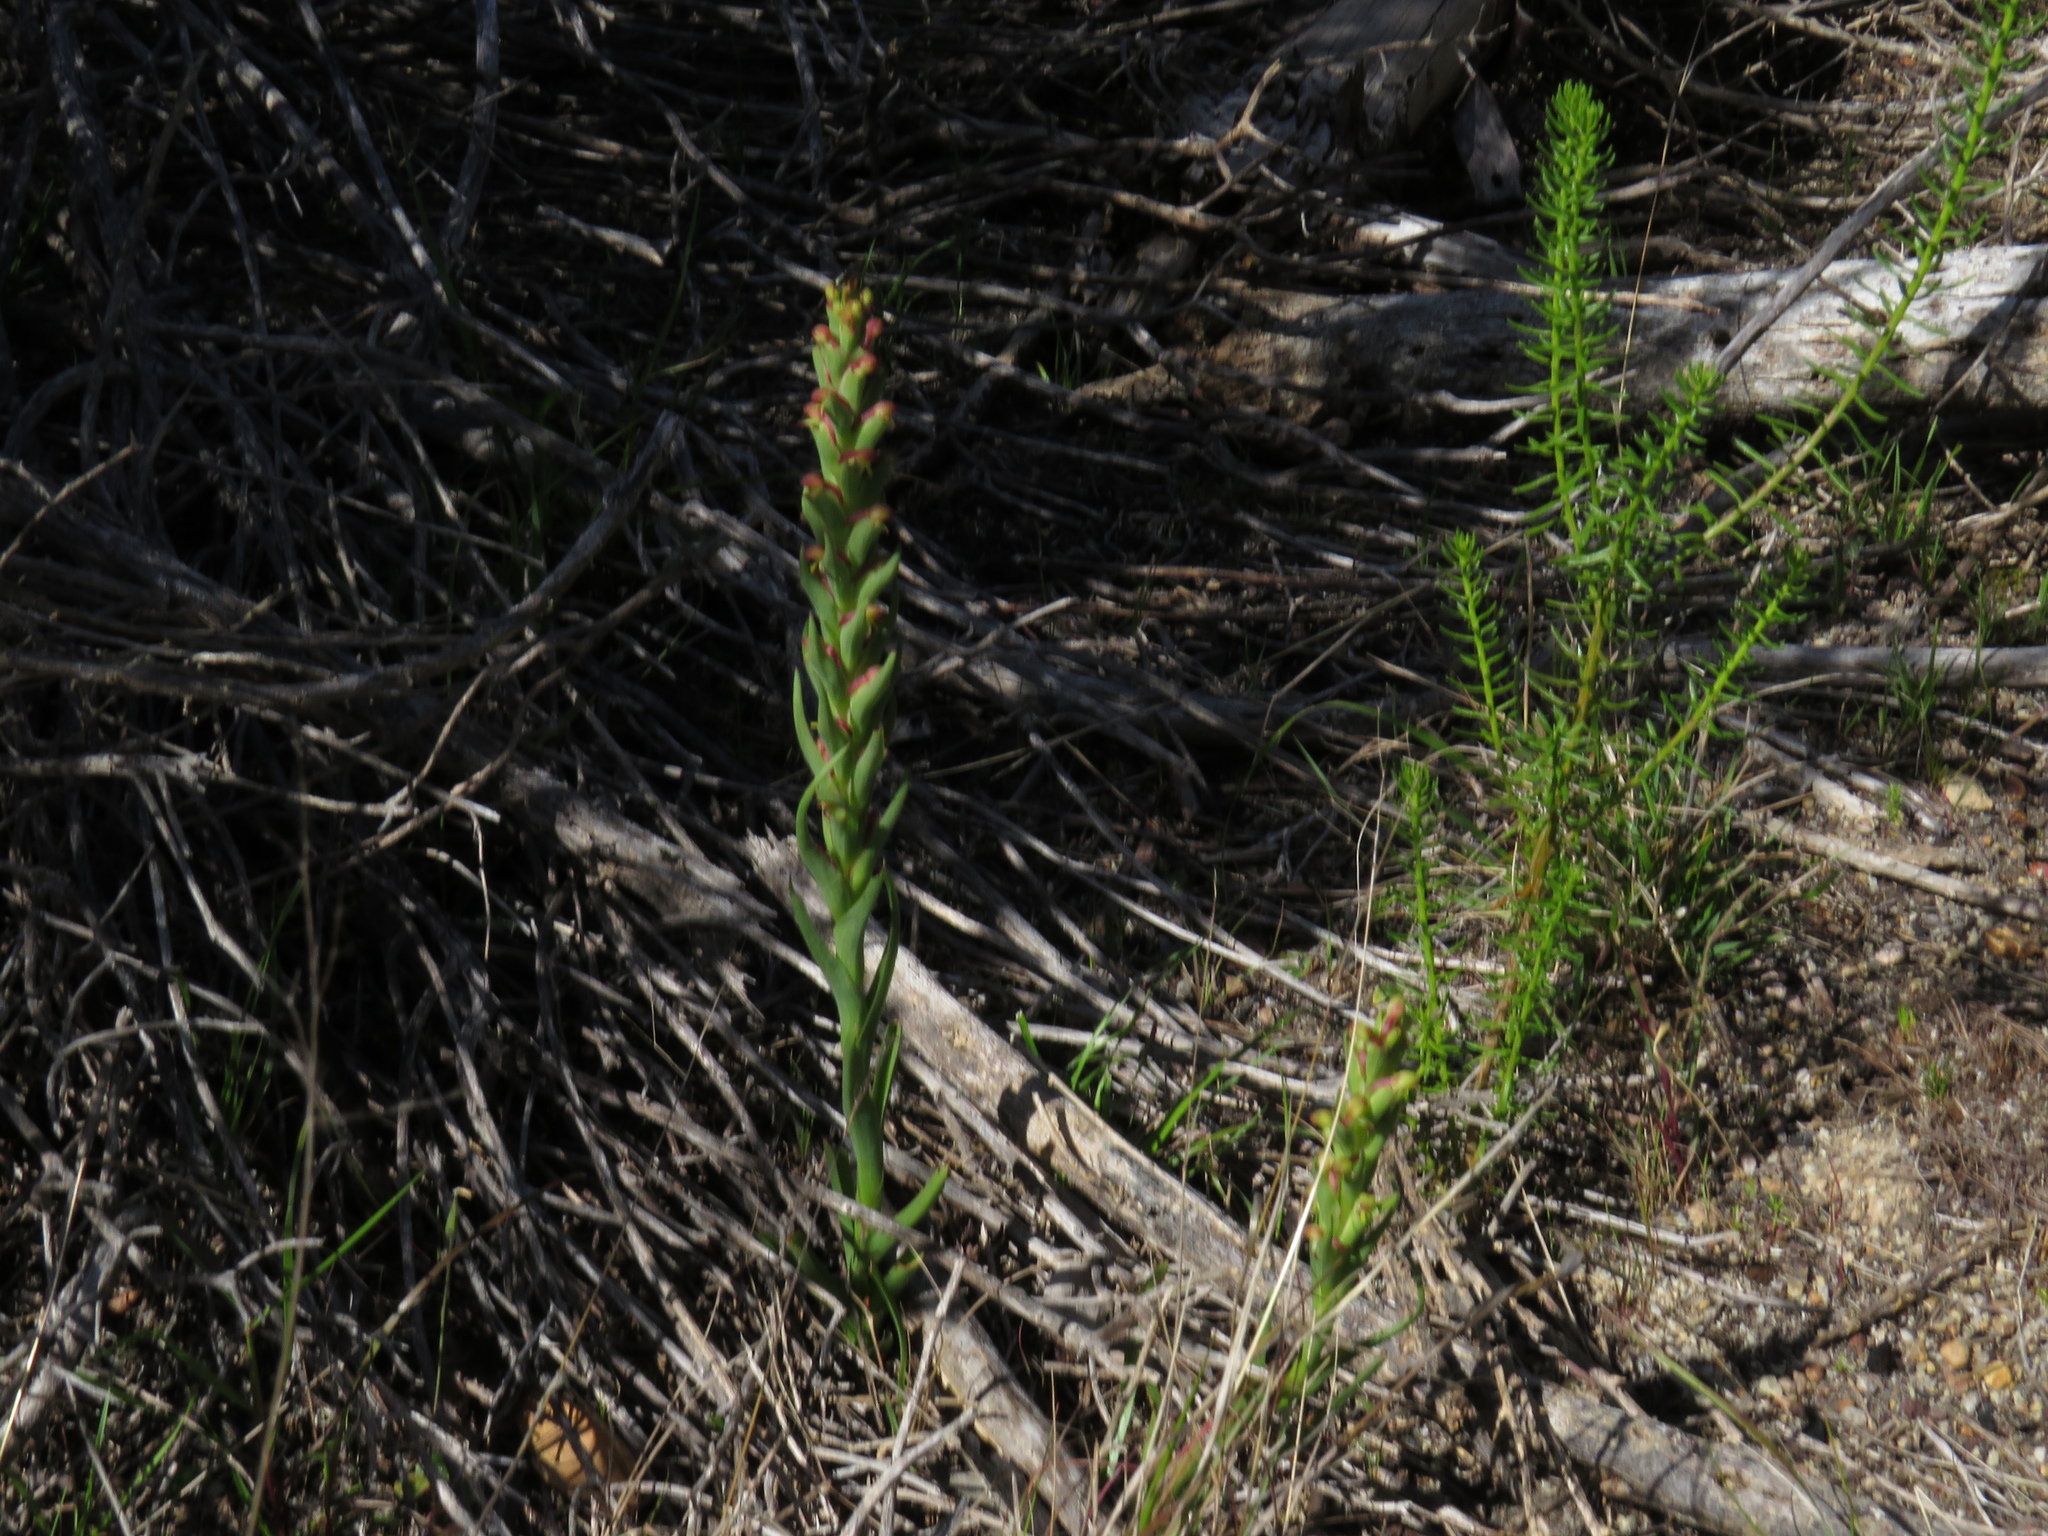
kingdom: Plantae
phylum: Tracheophyta
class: Liliopsida
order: Asparagales
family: Orchidaceae
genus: Disa
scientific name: Disa bracteata
